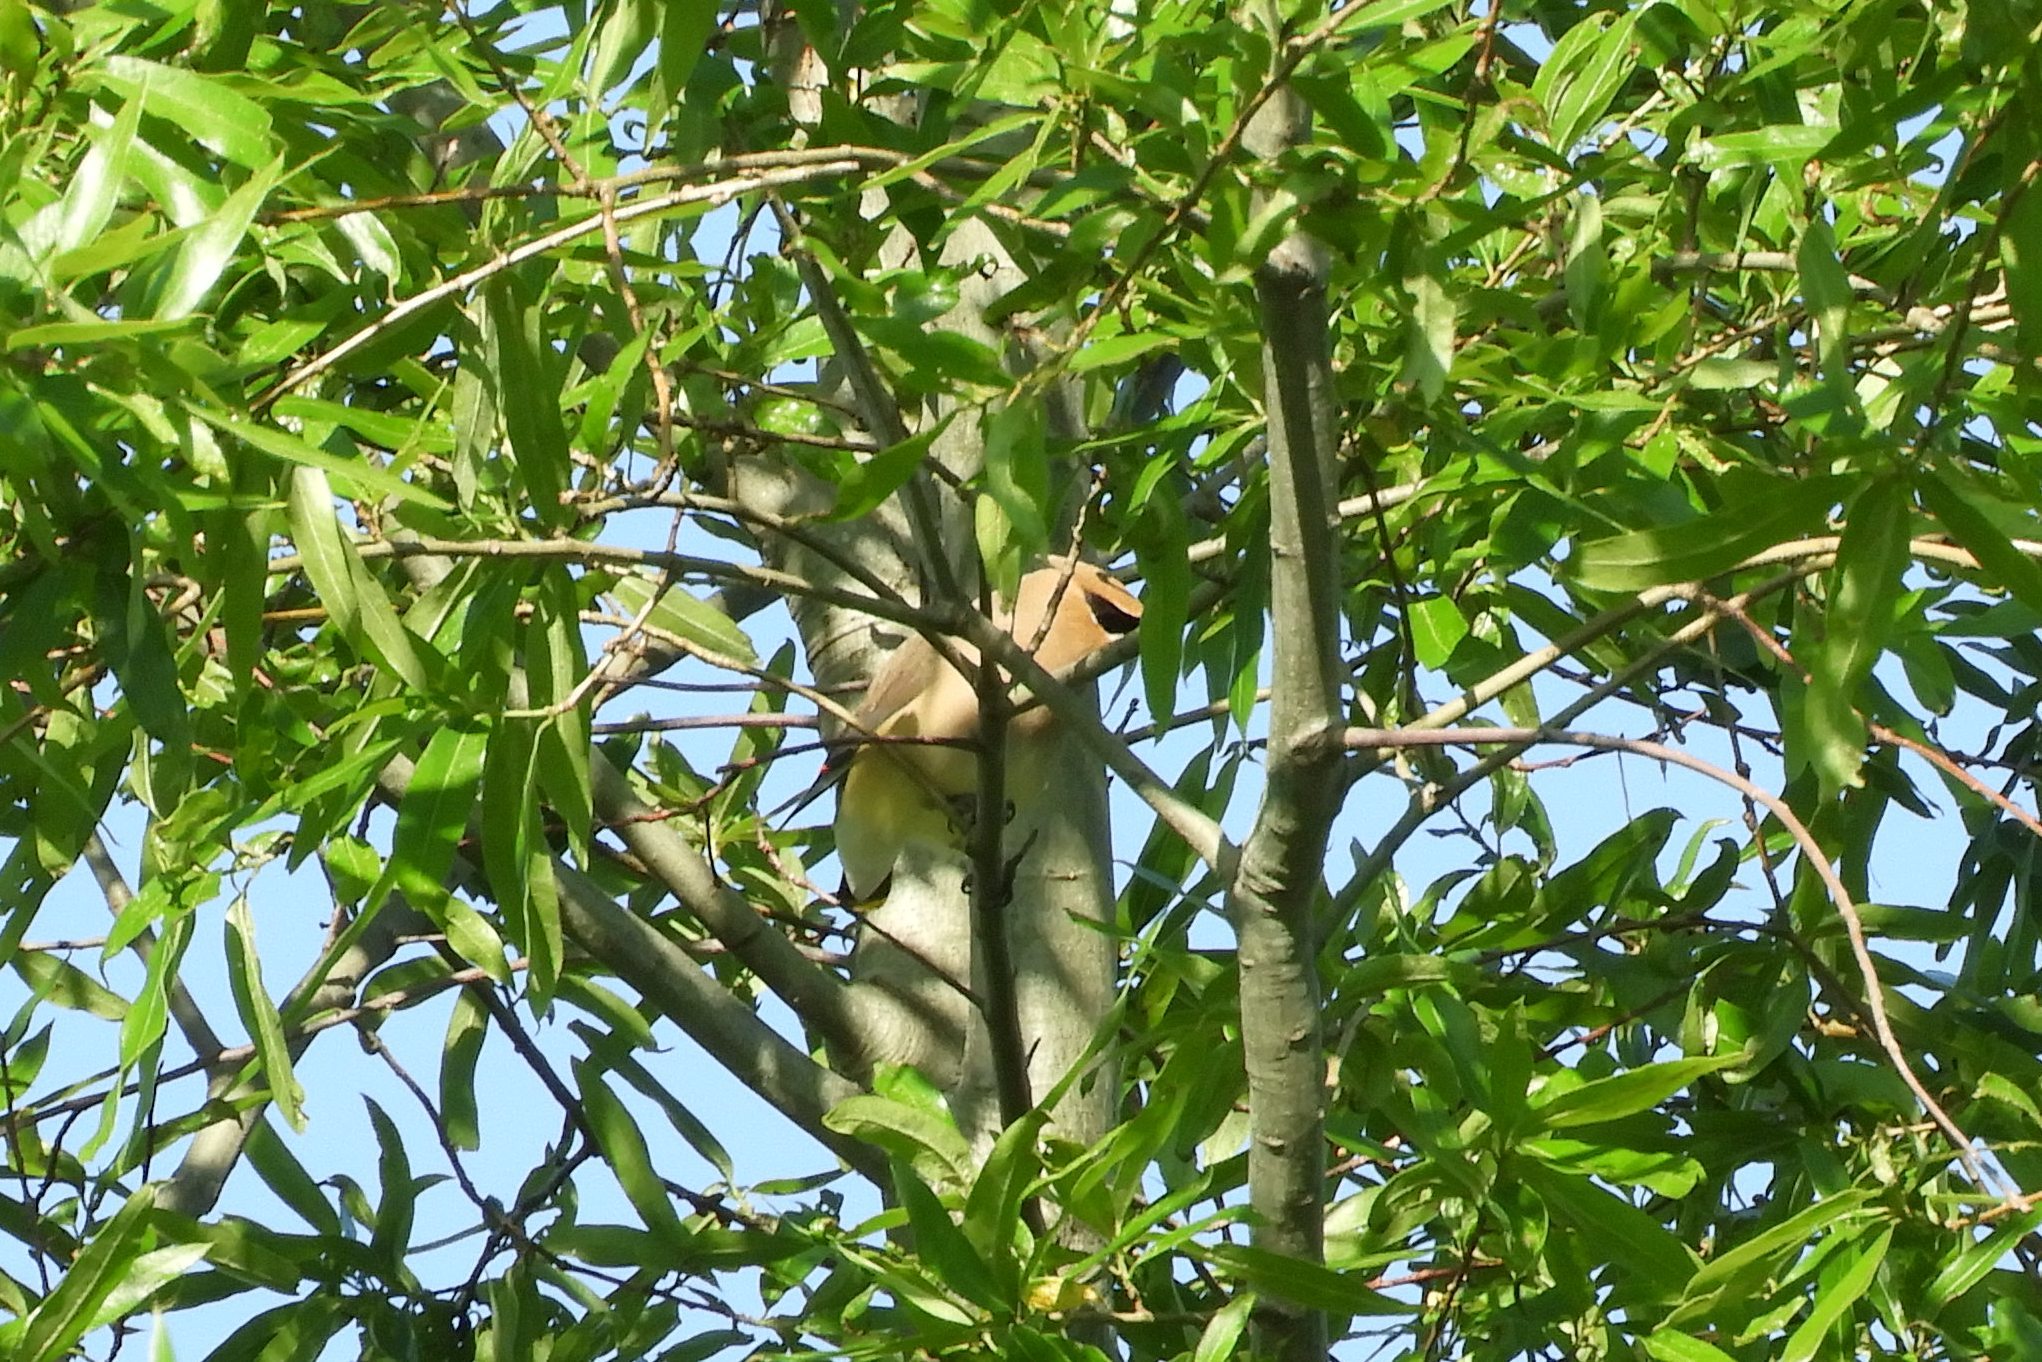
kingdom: Animalia
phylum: Chordata
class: Aves
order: Passeriformes
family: Bombycillidae
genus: Bombycilla
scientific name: Bombycilla cedrorum
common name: Cedar waxwing
